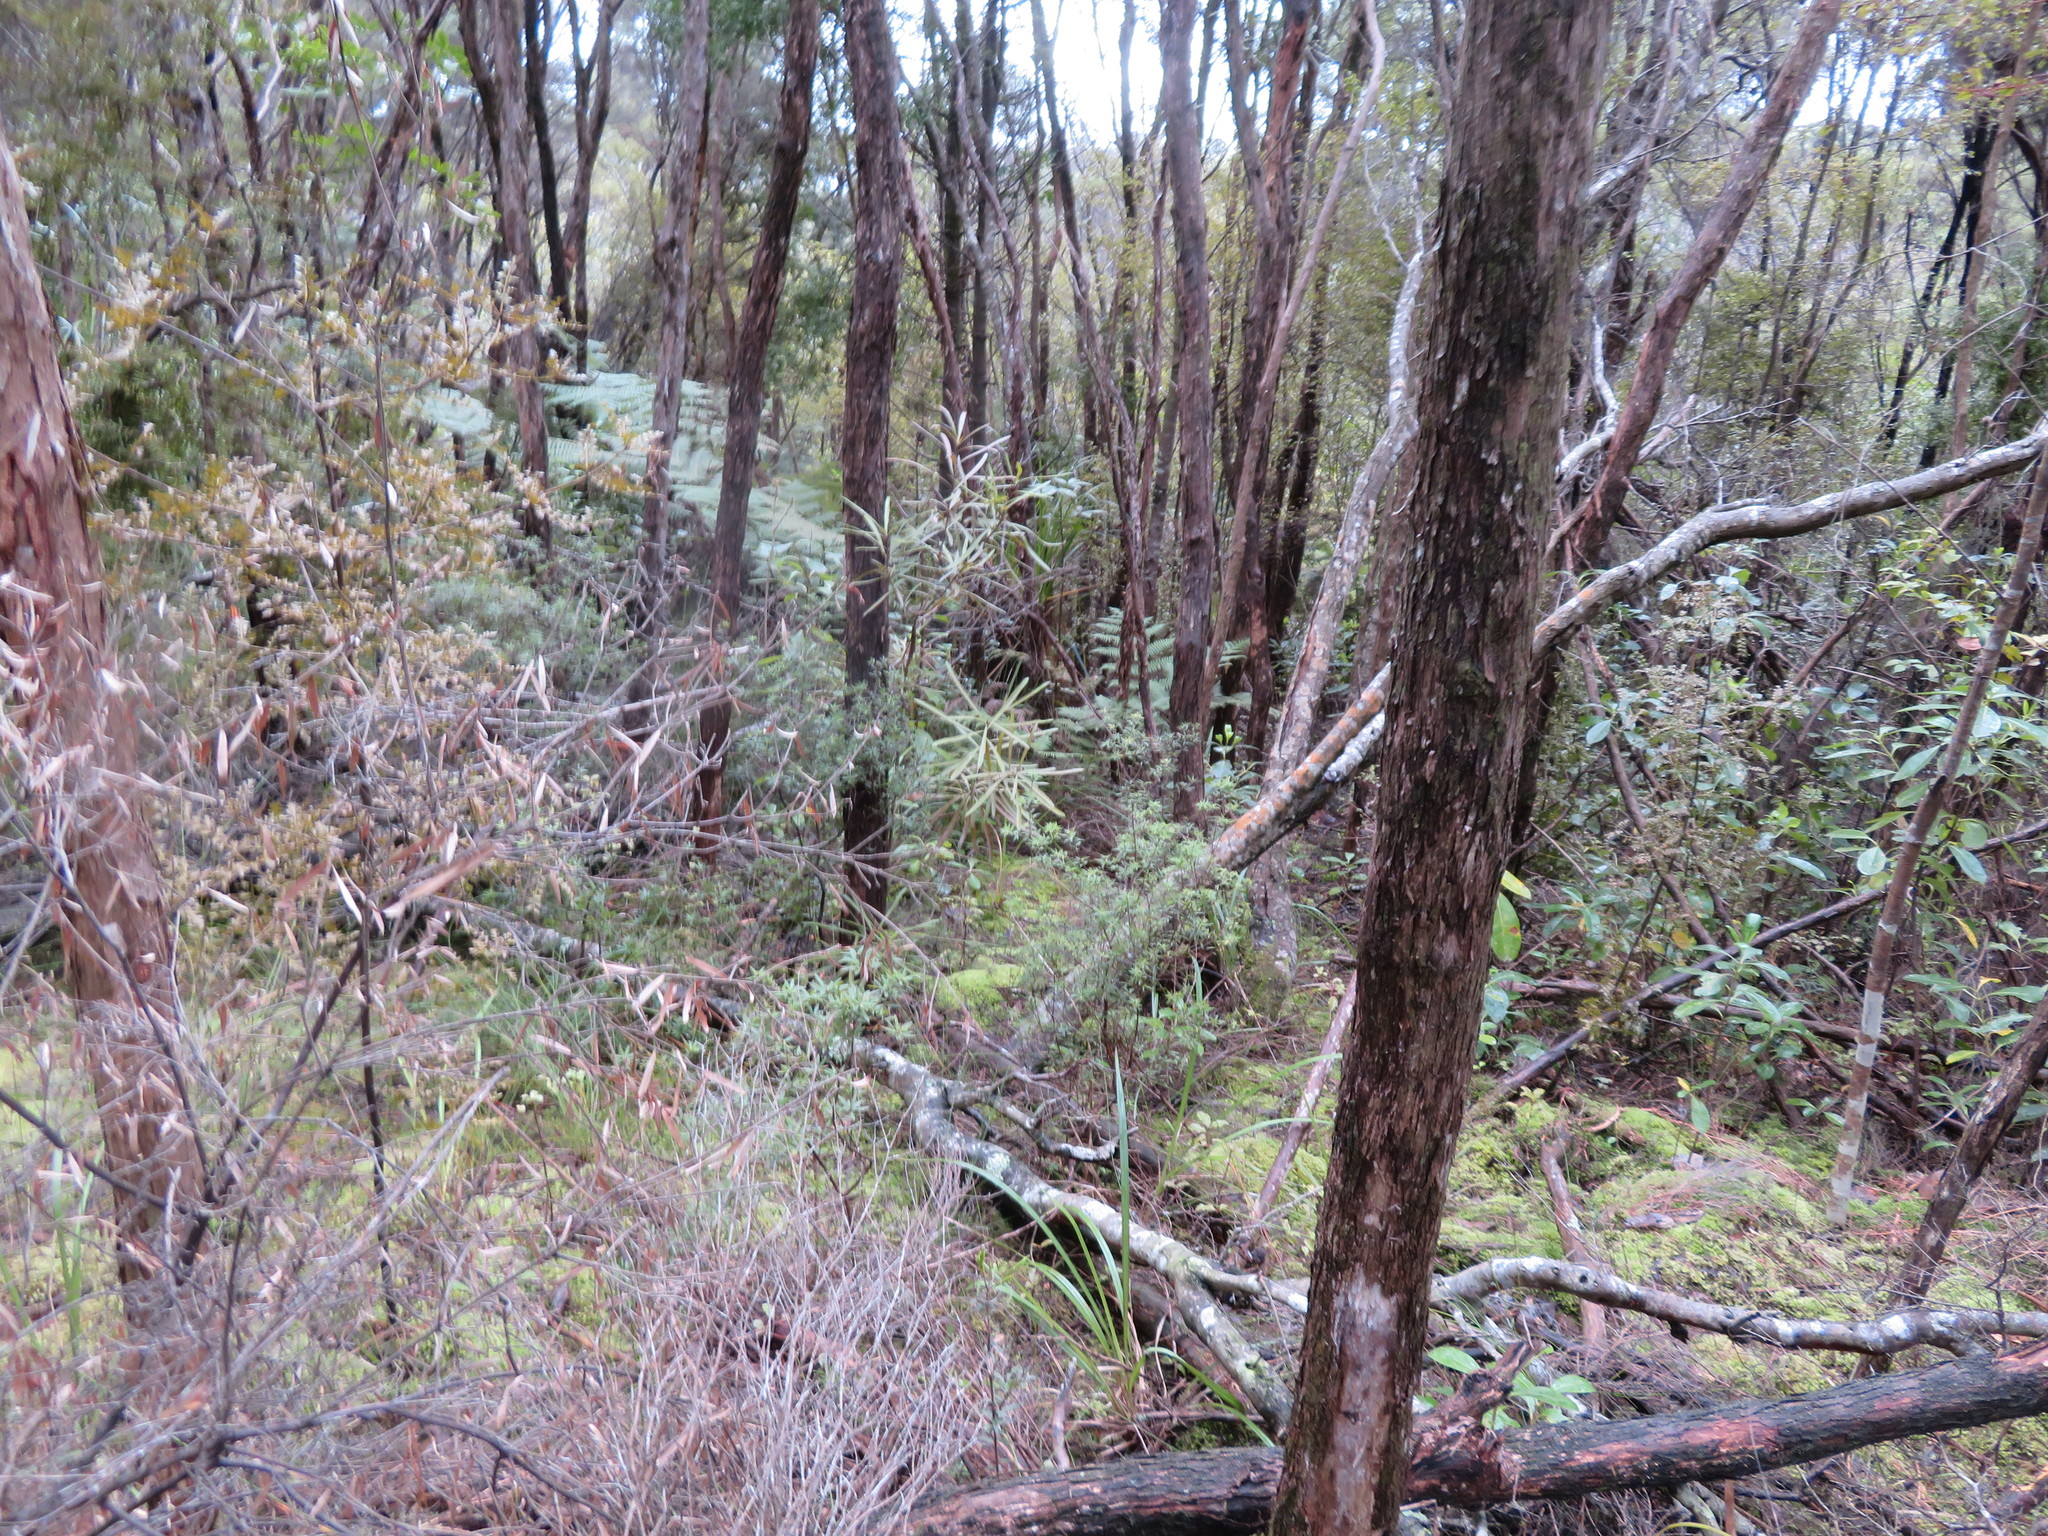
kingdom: Plantae
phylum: Tracheophyta
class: Magnoliopsida
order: Proteales
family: Proteaceae
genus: Toronia
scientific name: Toronia toru
